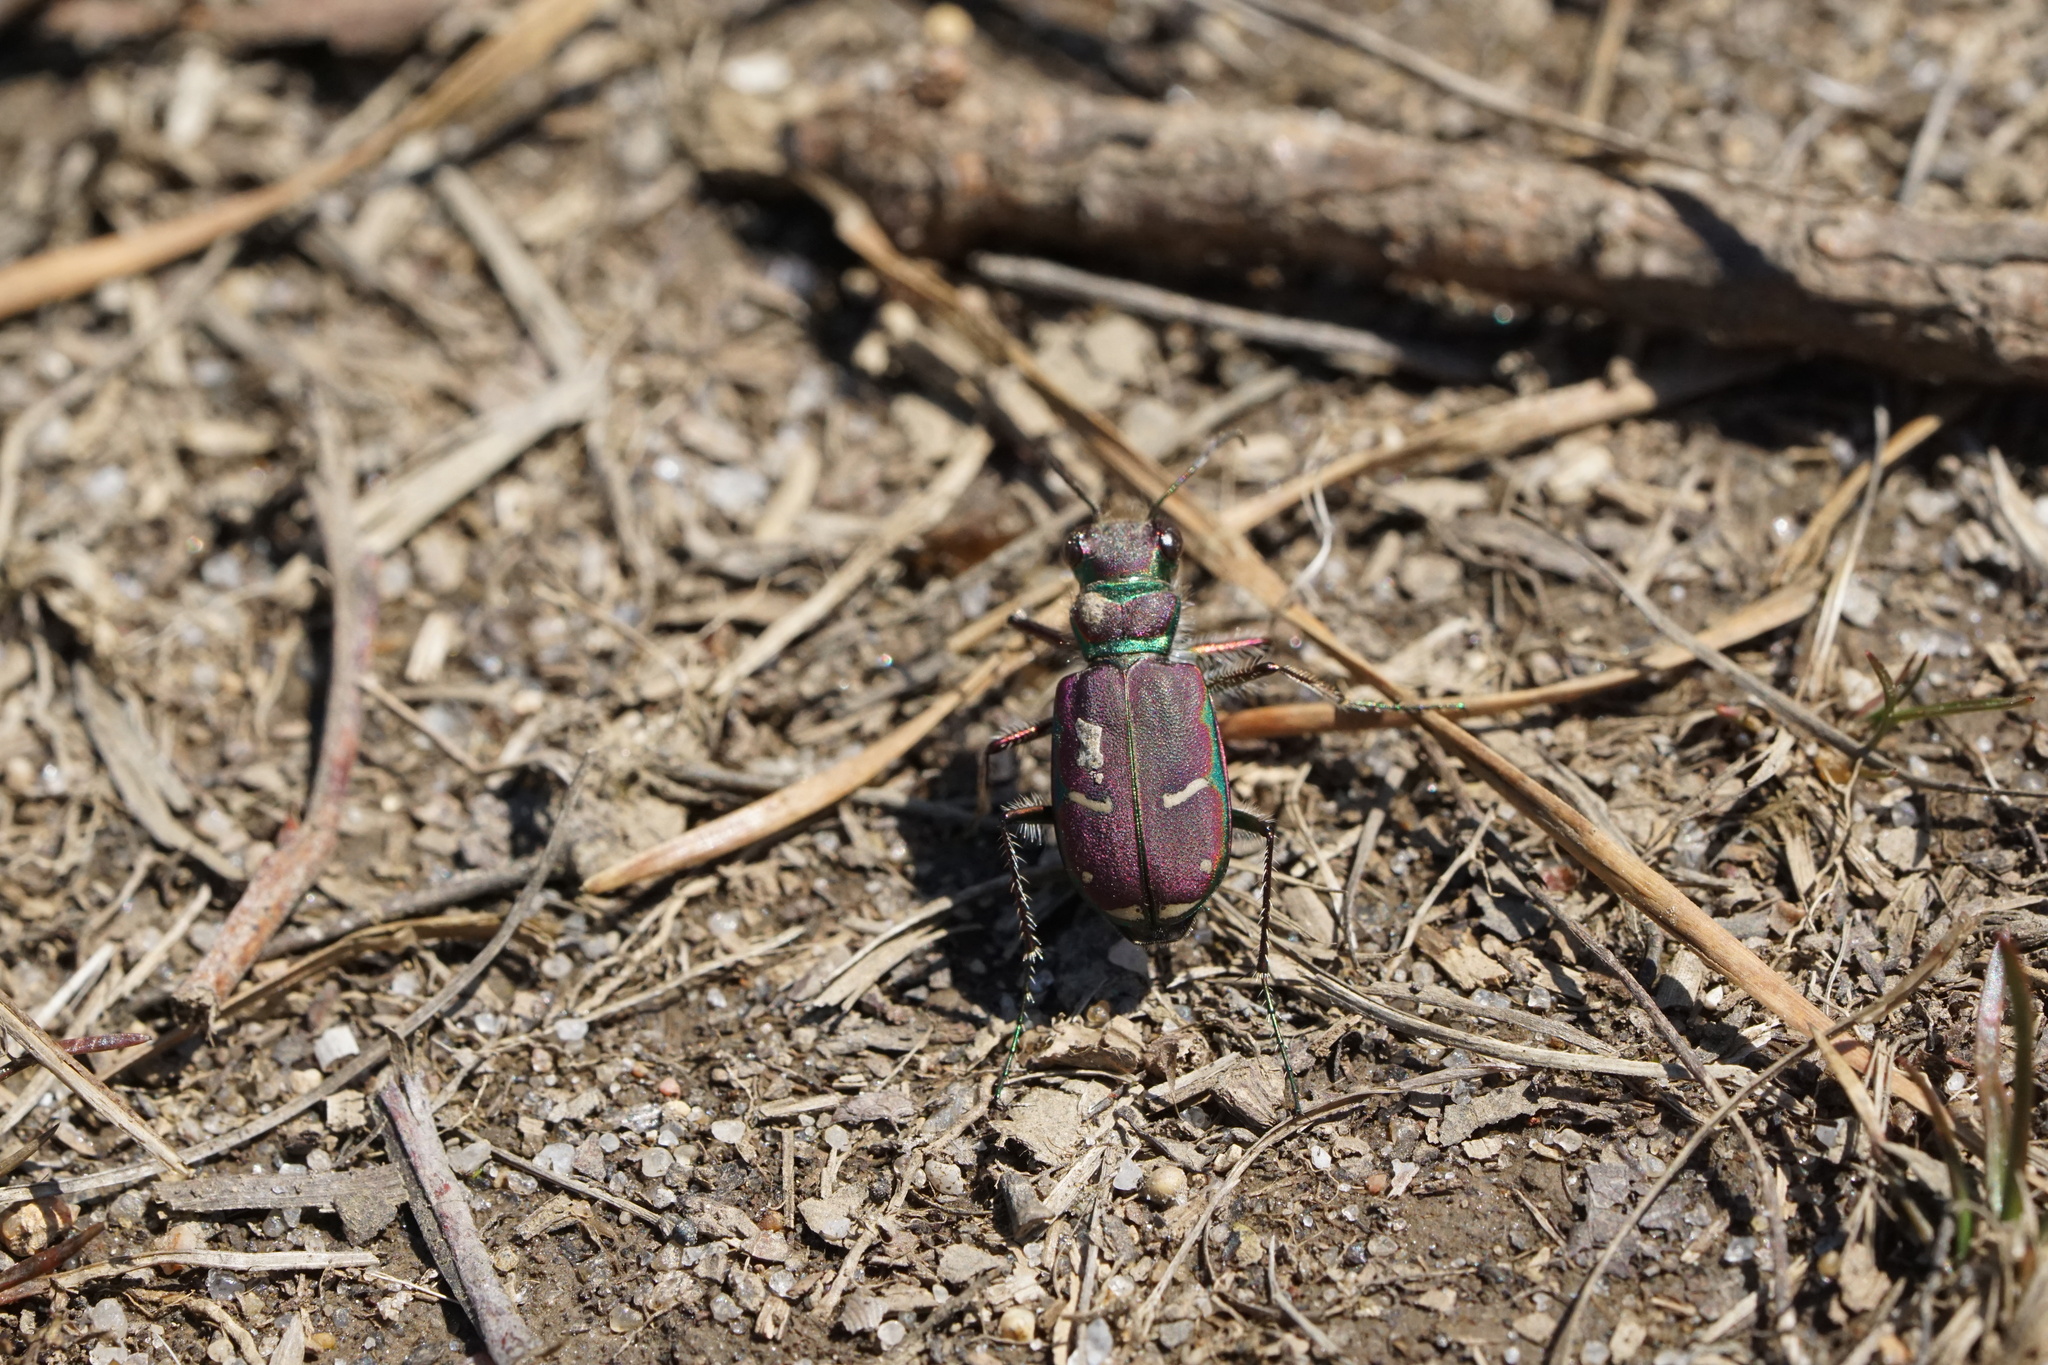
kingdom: Animalia
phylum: Arthropoda
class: Insecta
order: Coleoptera
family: Carabidae
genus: Cicindela
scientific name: Cicindela purpurea
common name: Cow path tiger beetle
